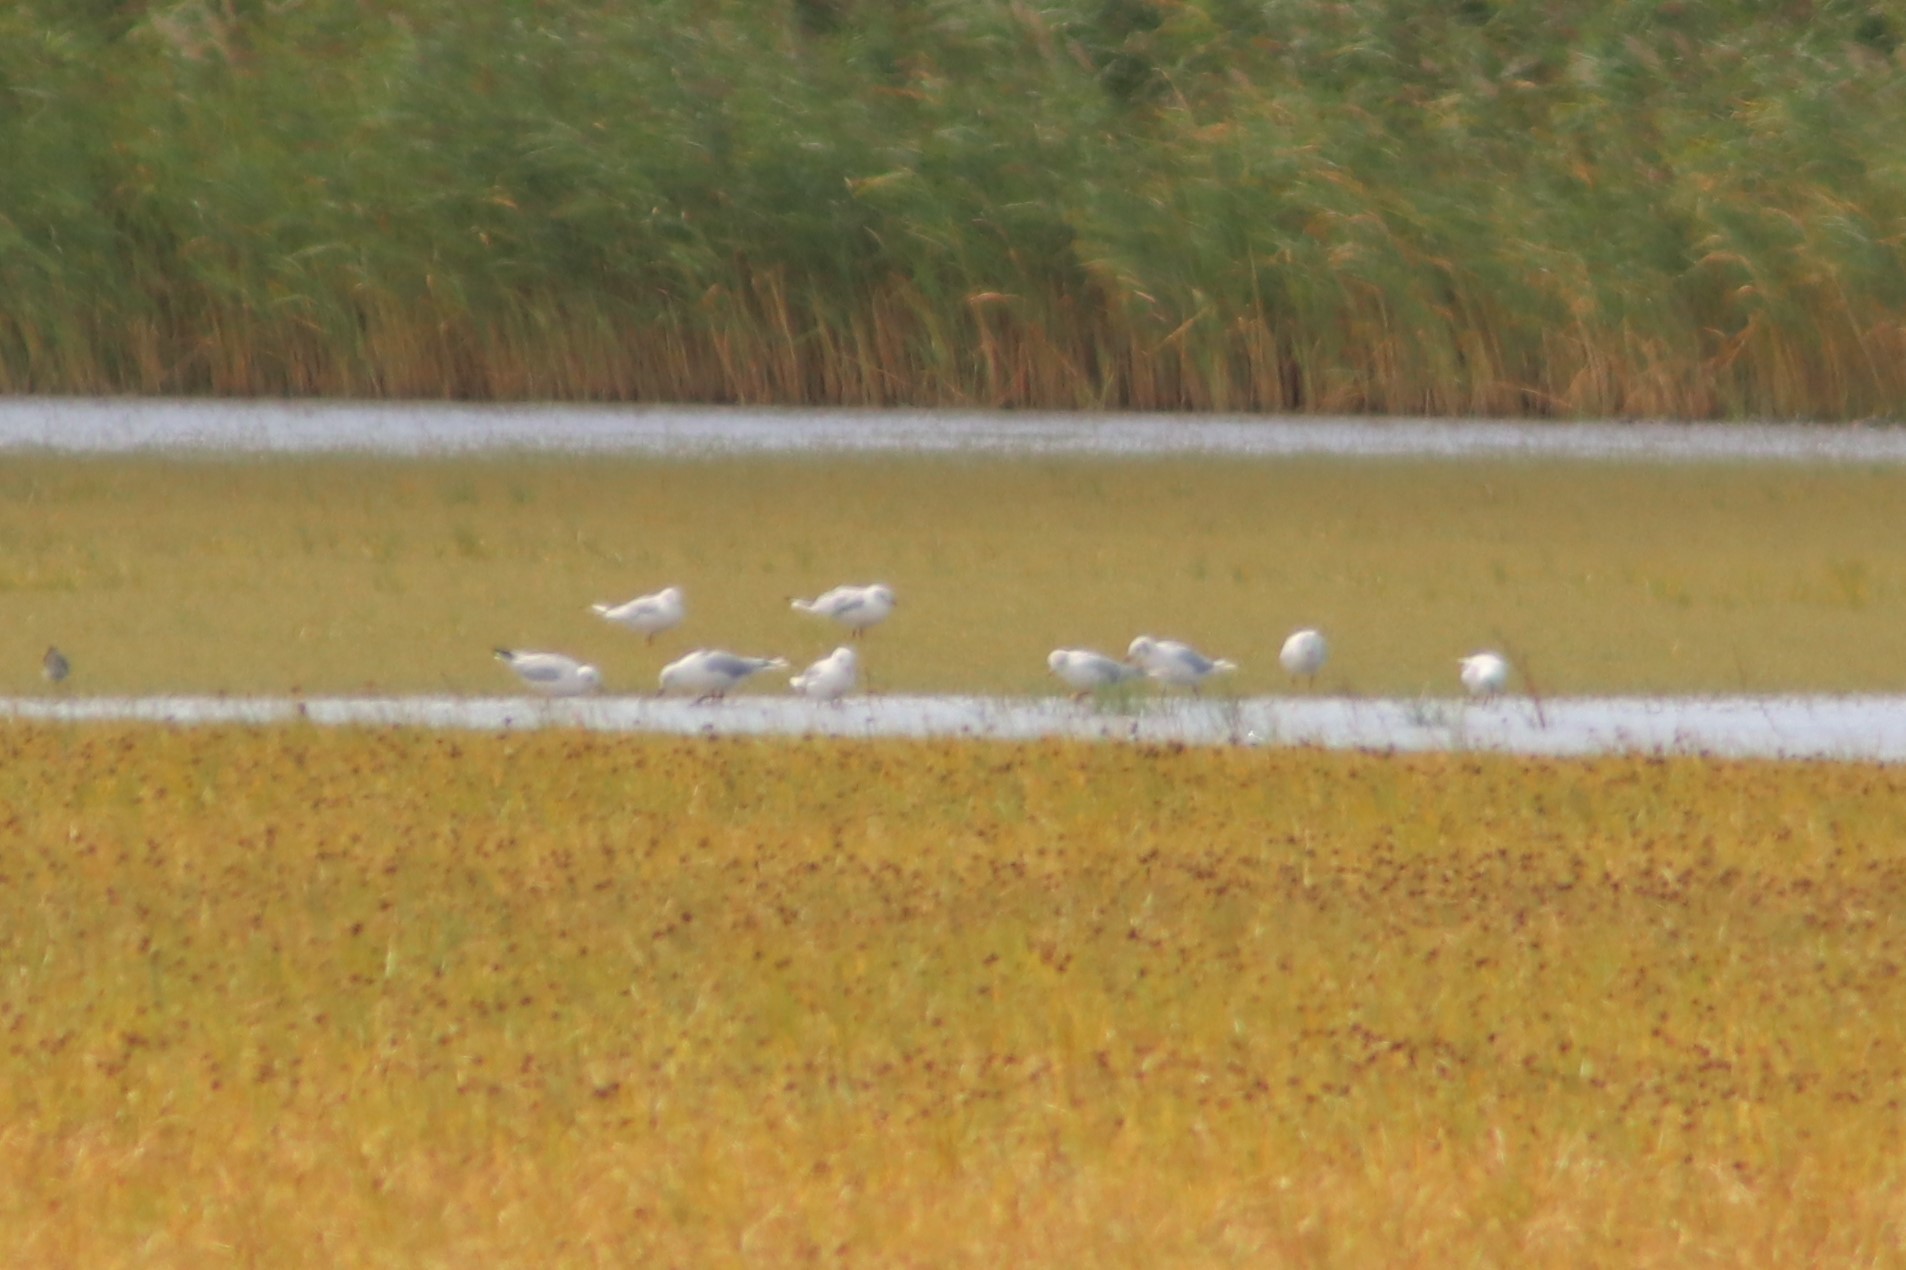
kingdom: Animalia
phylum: Chordata
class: Aves
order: Charadriiformes
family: Laridae
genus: Chroicocephalus
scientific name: Chroicocephalus ridibundus
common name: Black-headed gull
